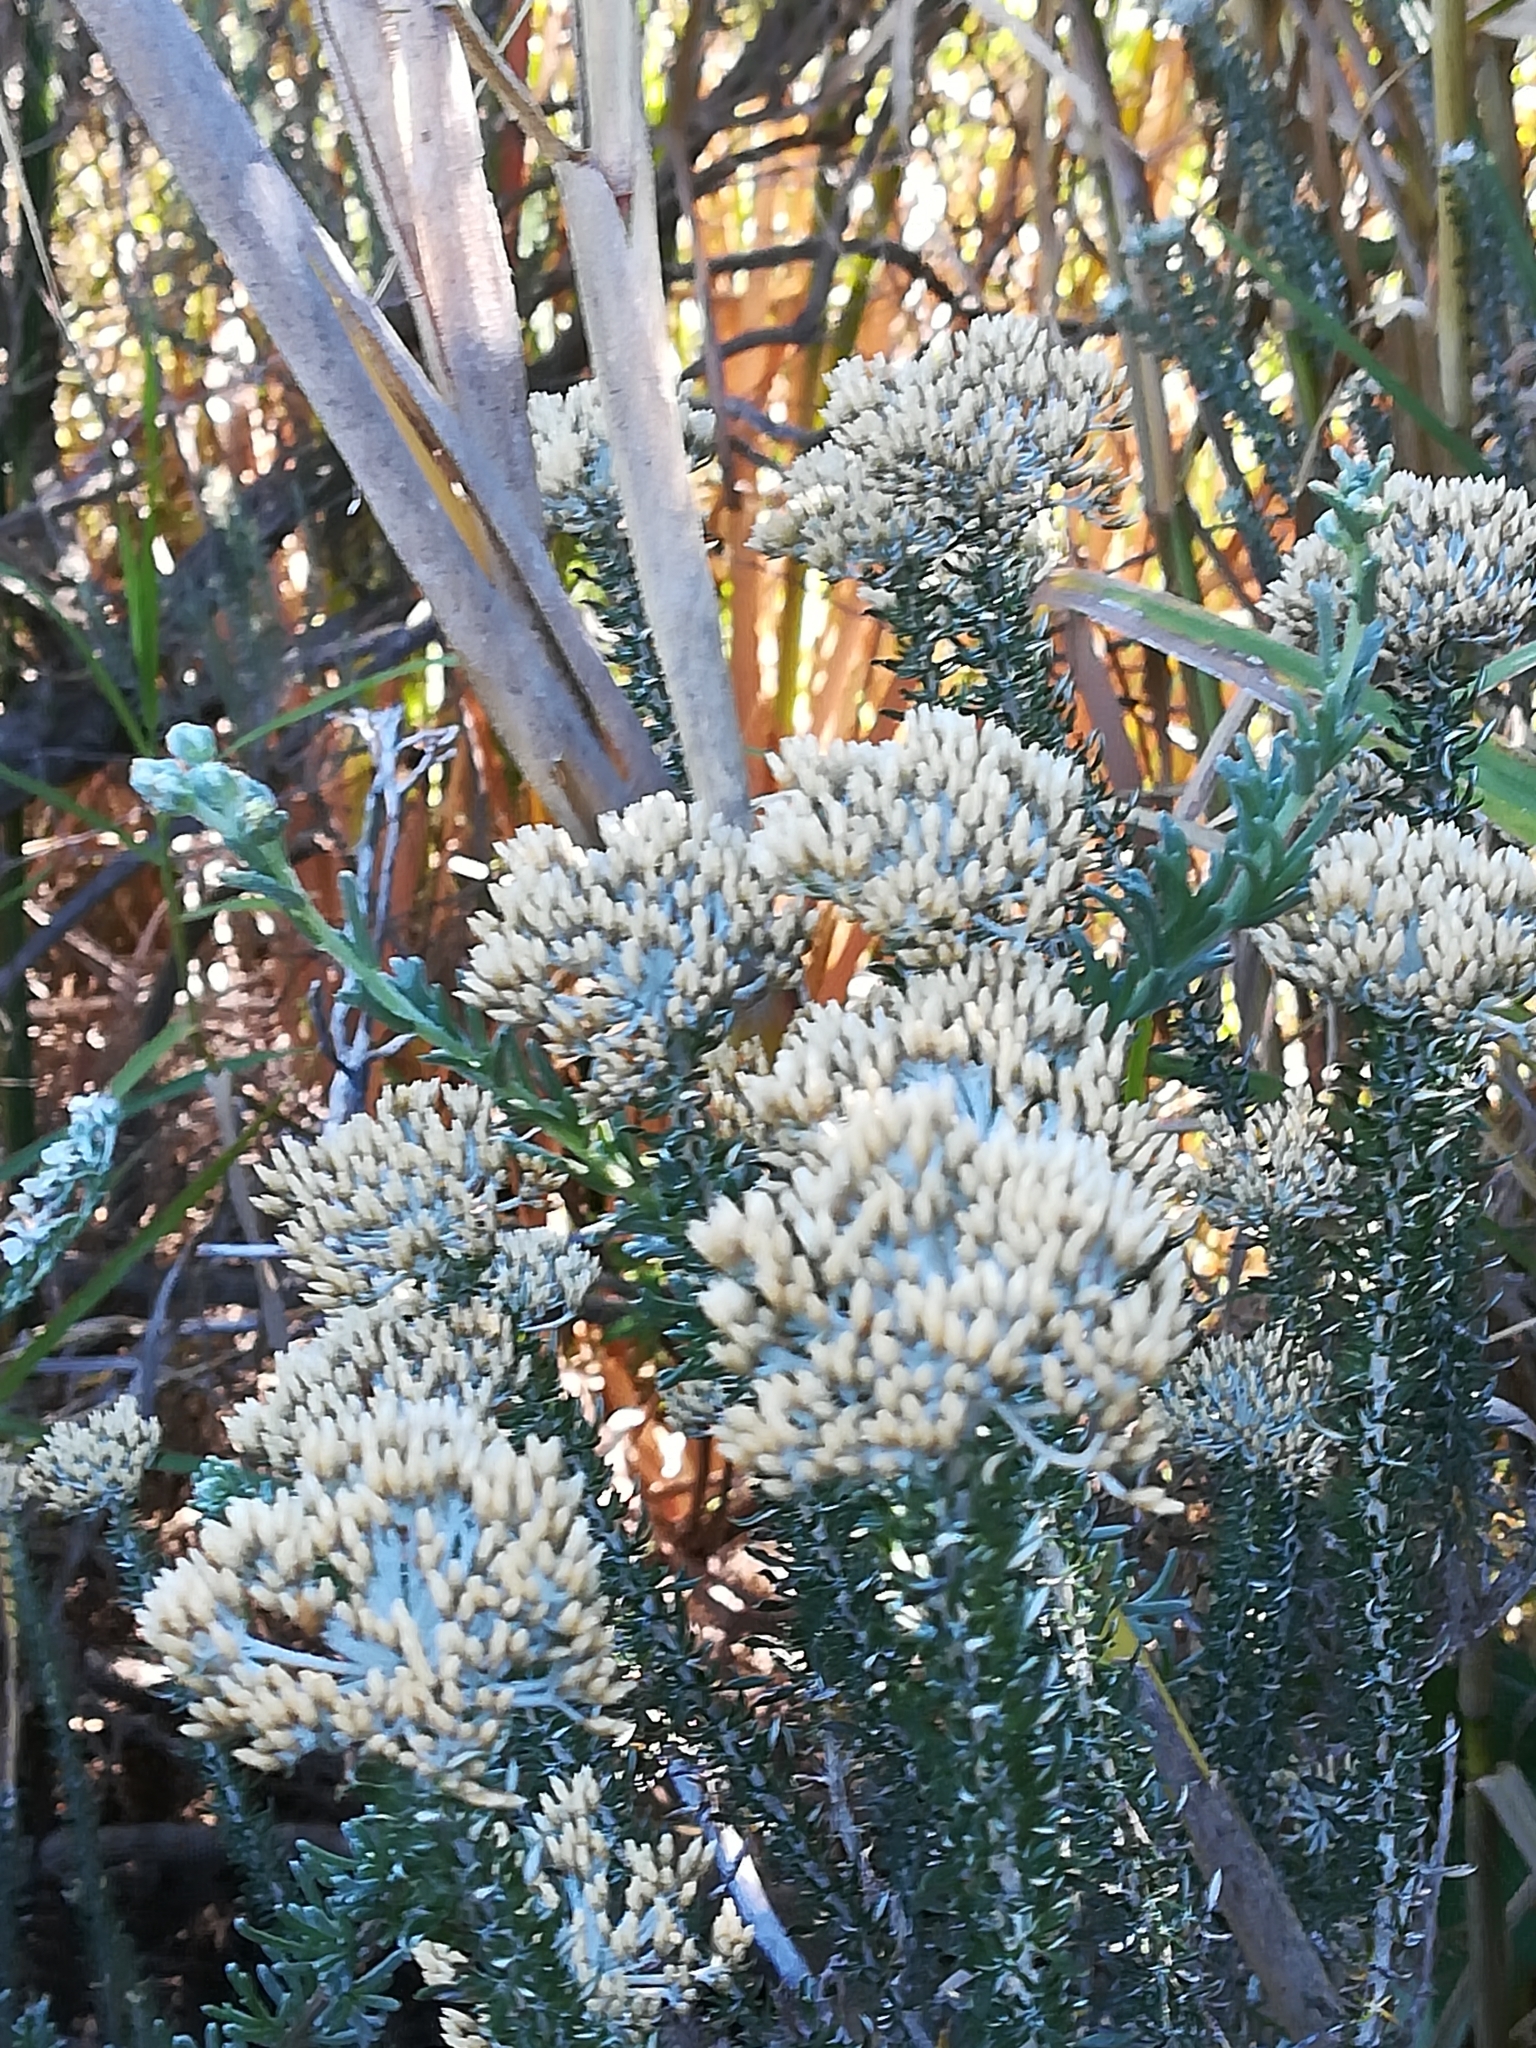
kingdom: Plantae
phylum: Tracheophyta
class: Magnoliopsida
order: Asterales
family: Asteraceae
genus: Metalasia
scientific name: Metalasia densa
